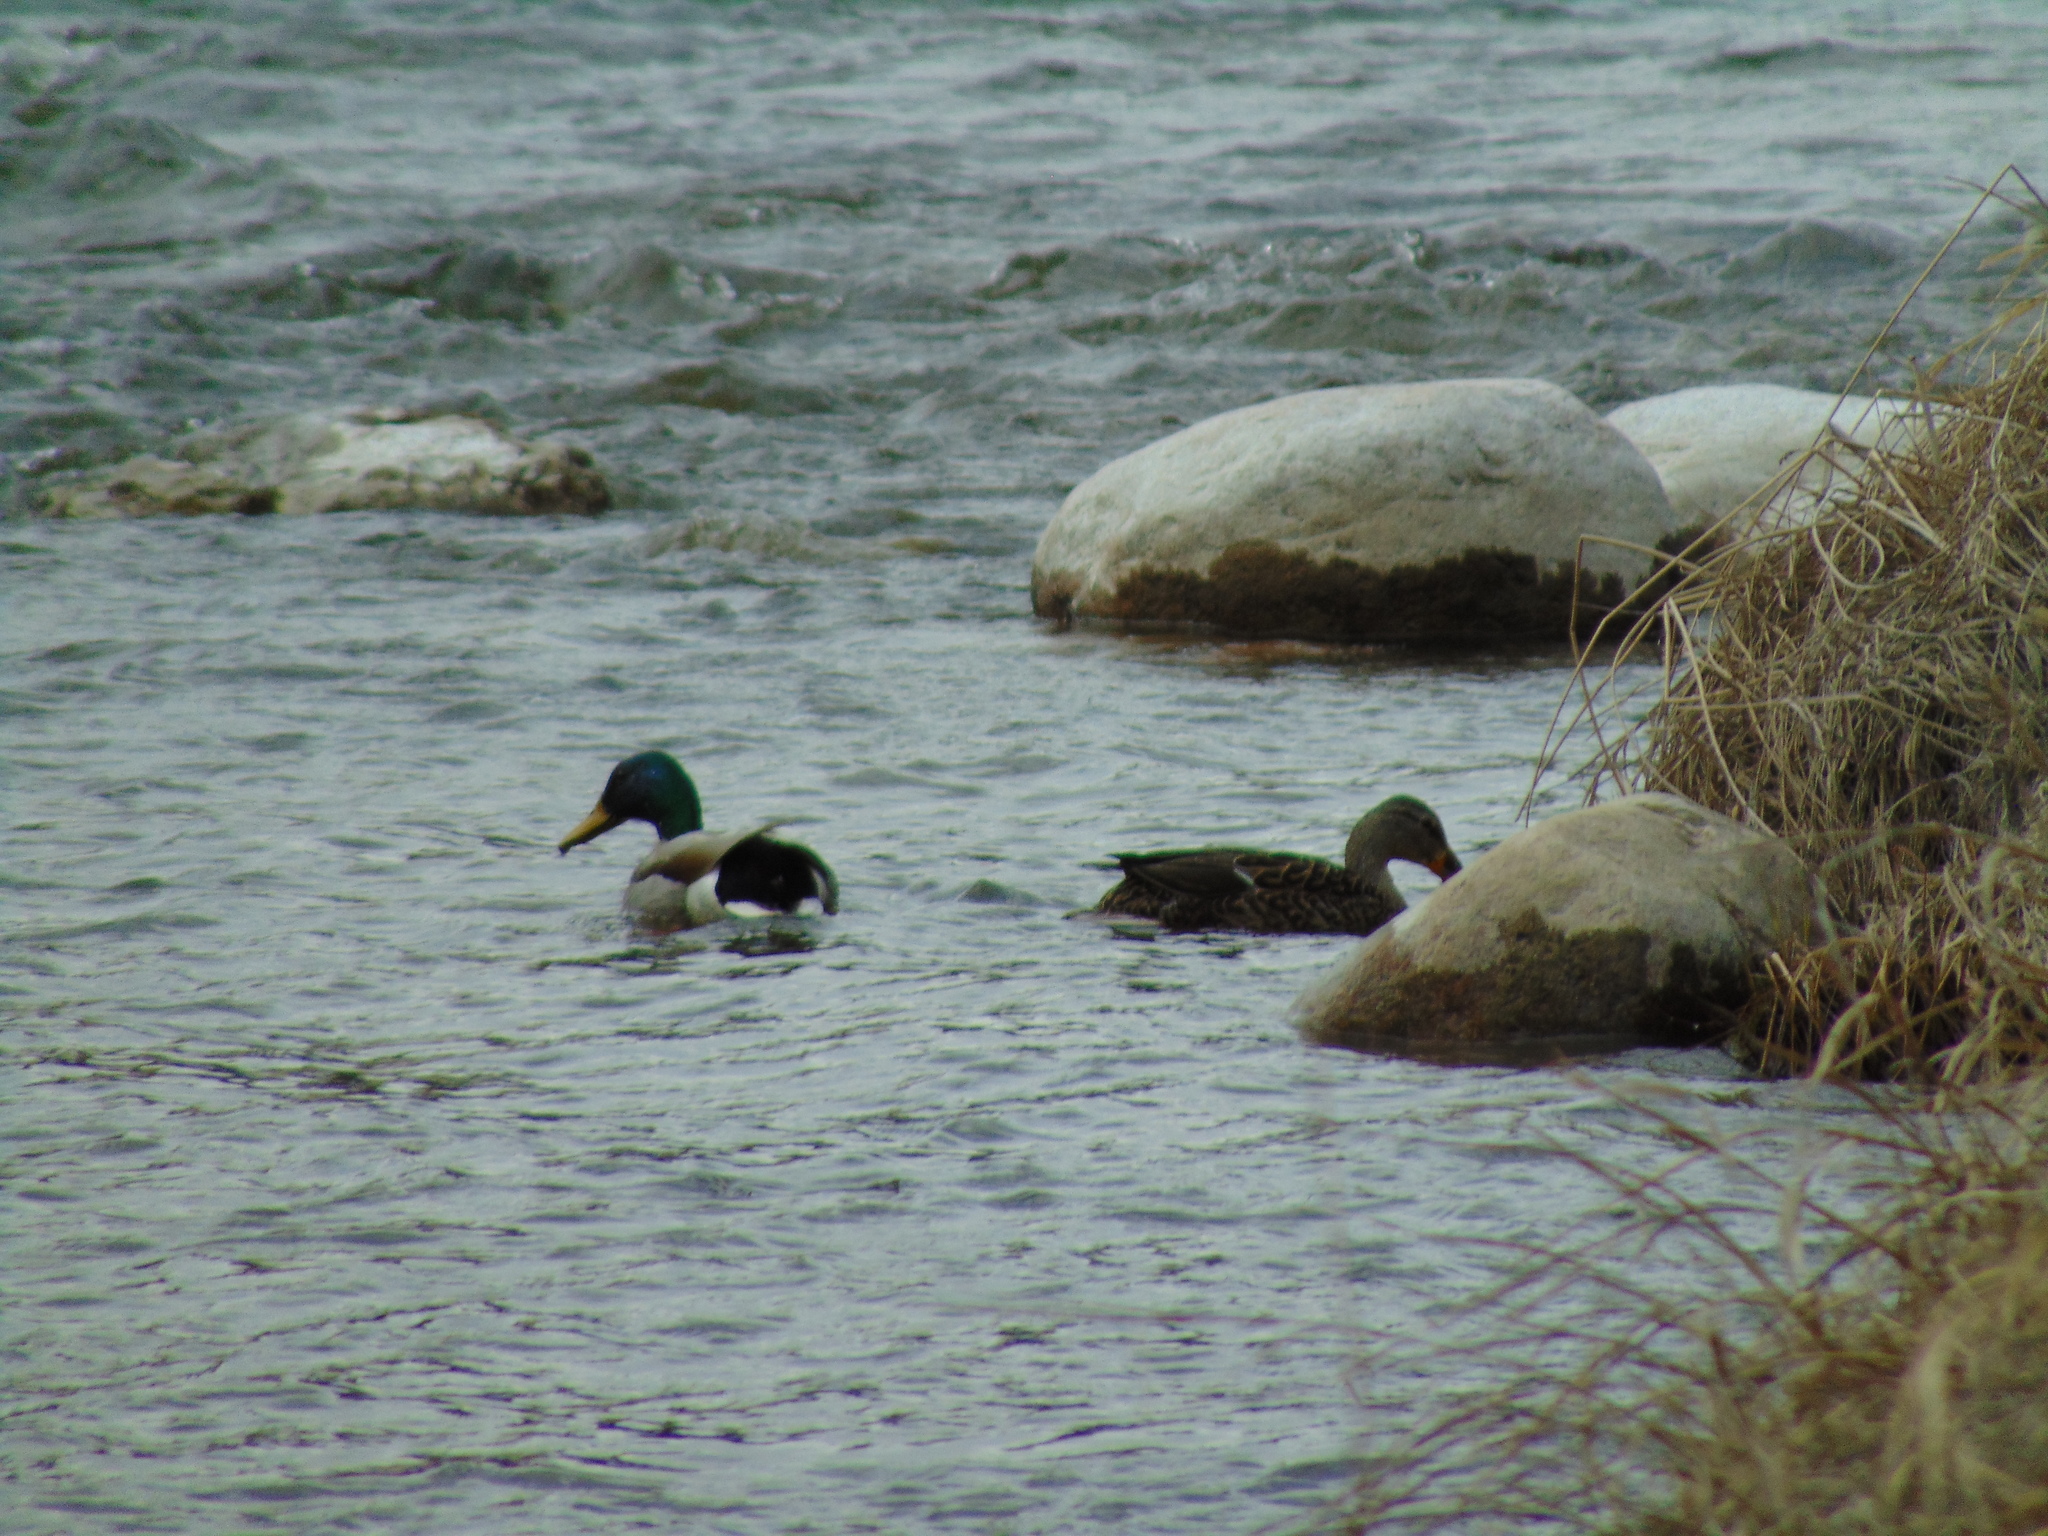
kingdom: Animalia
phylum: Chordata
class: Aves
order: Anseriformes
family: Anatidae
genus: Anas
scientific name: Anas platyrhynchos
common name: Mallard
